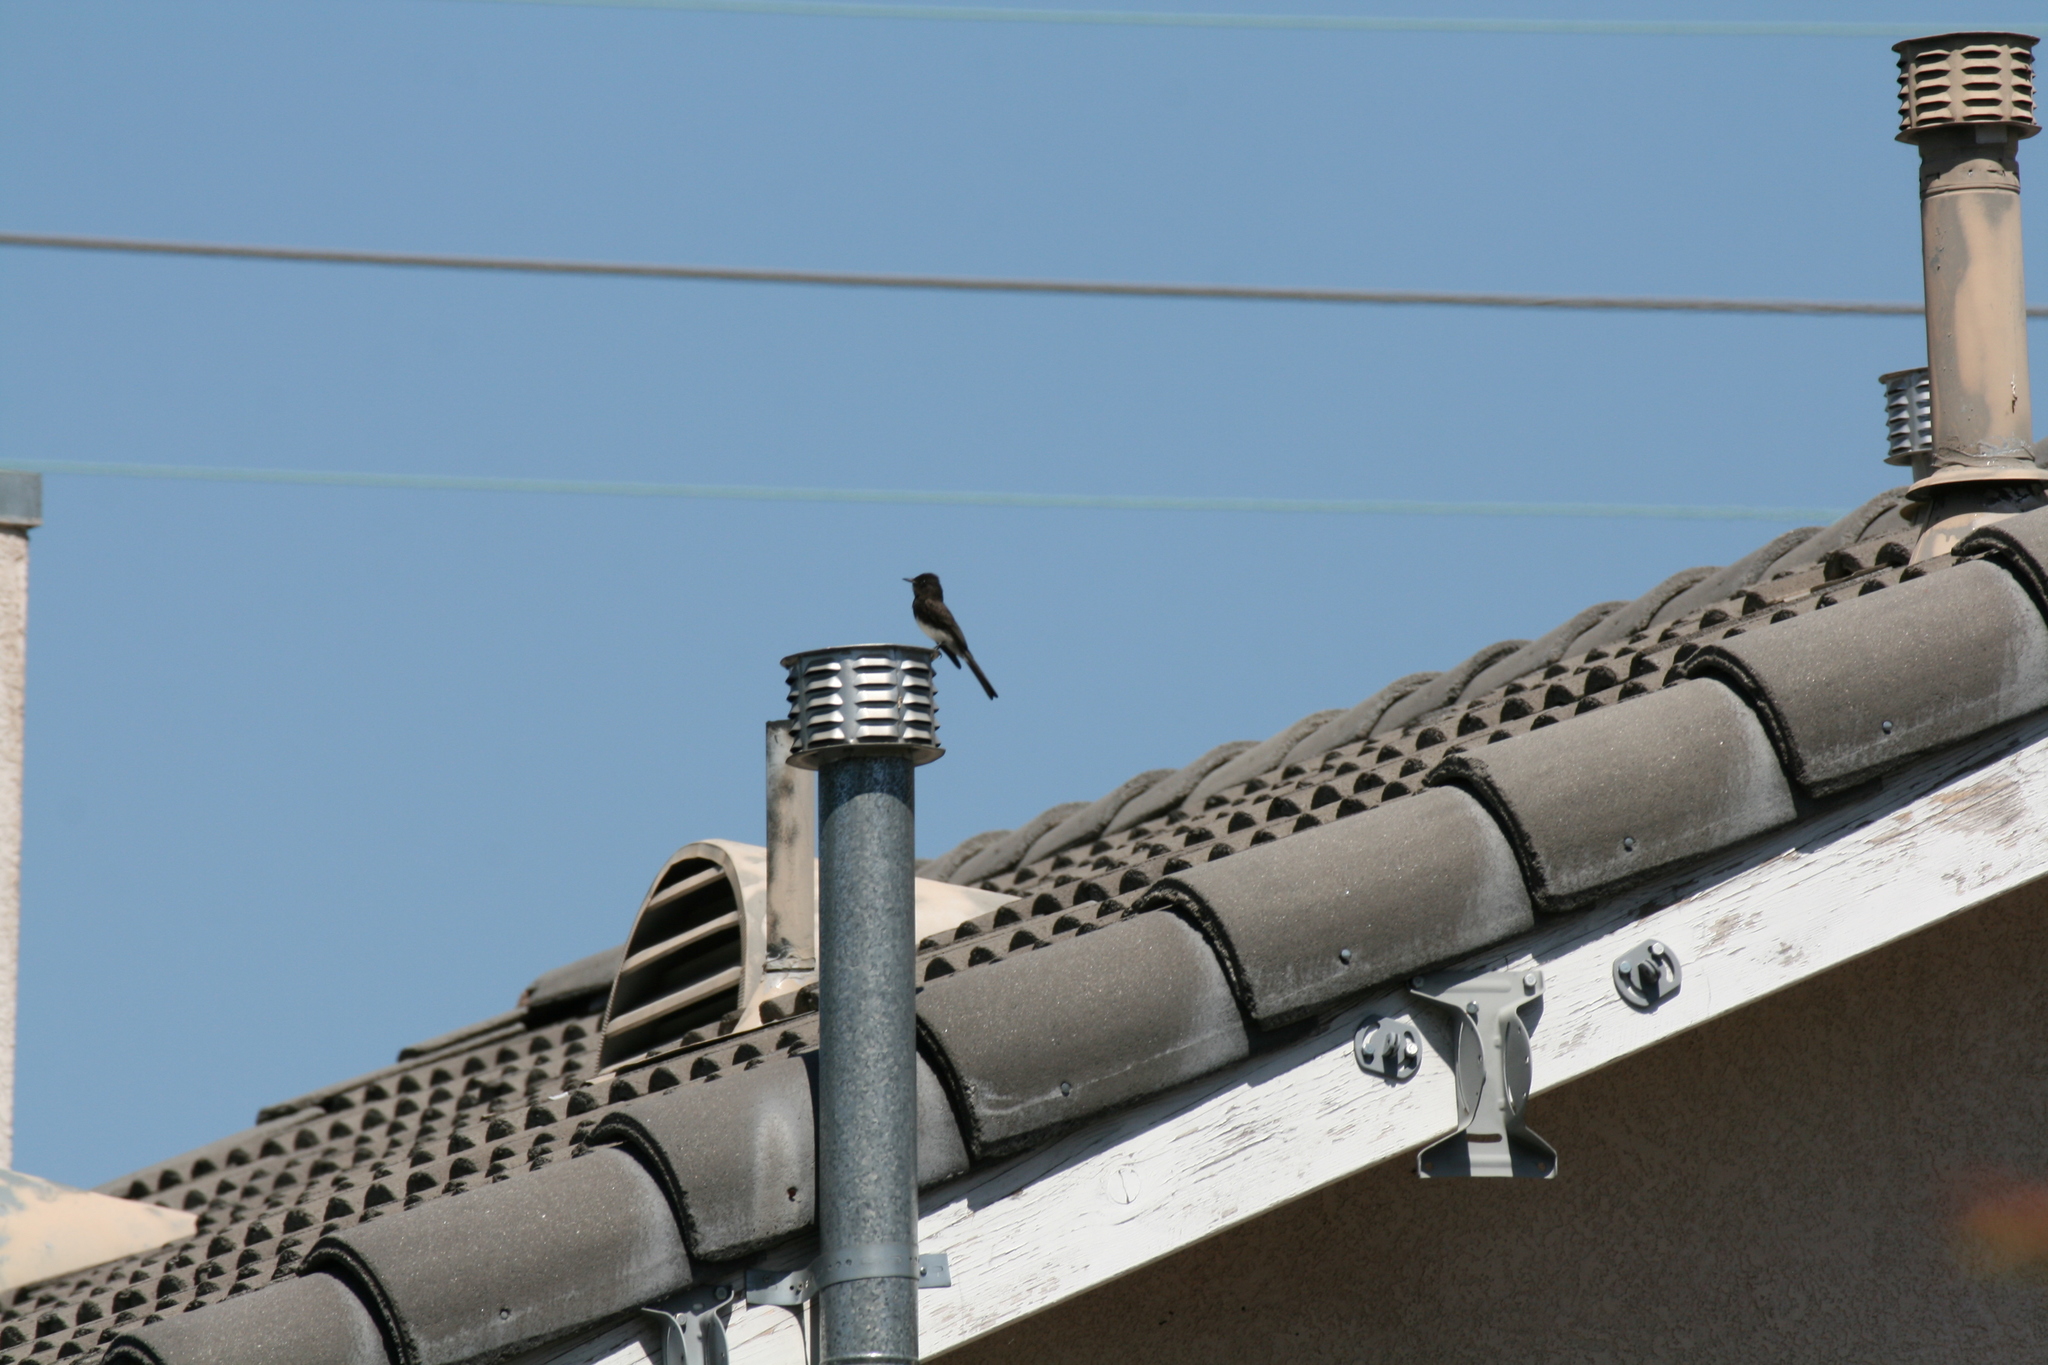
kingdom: Animalia
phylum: Chordata
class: Aves
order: Passeriformes
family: Tyrannidae
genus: Sayornis
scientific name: Sayornis nigricans
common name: Black phoebe
